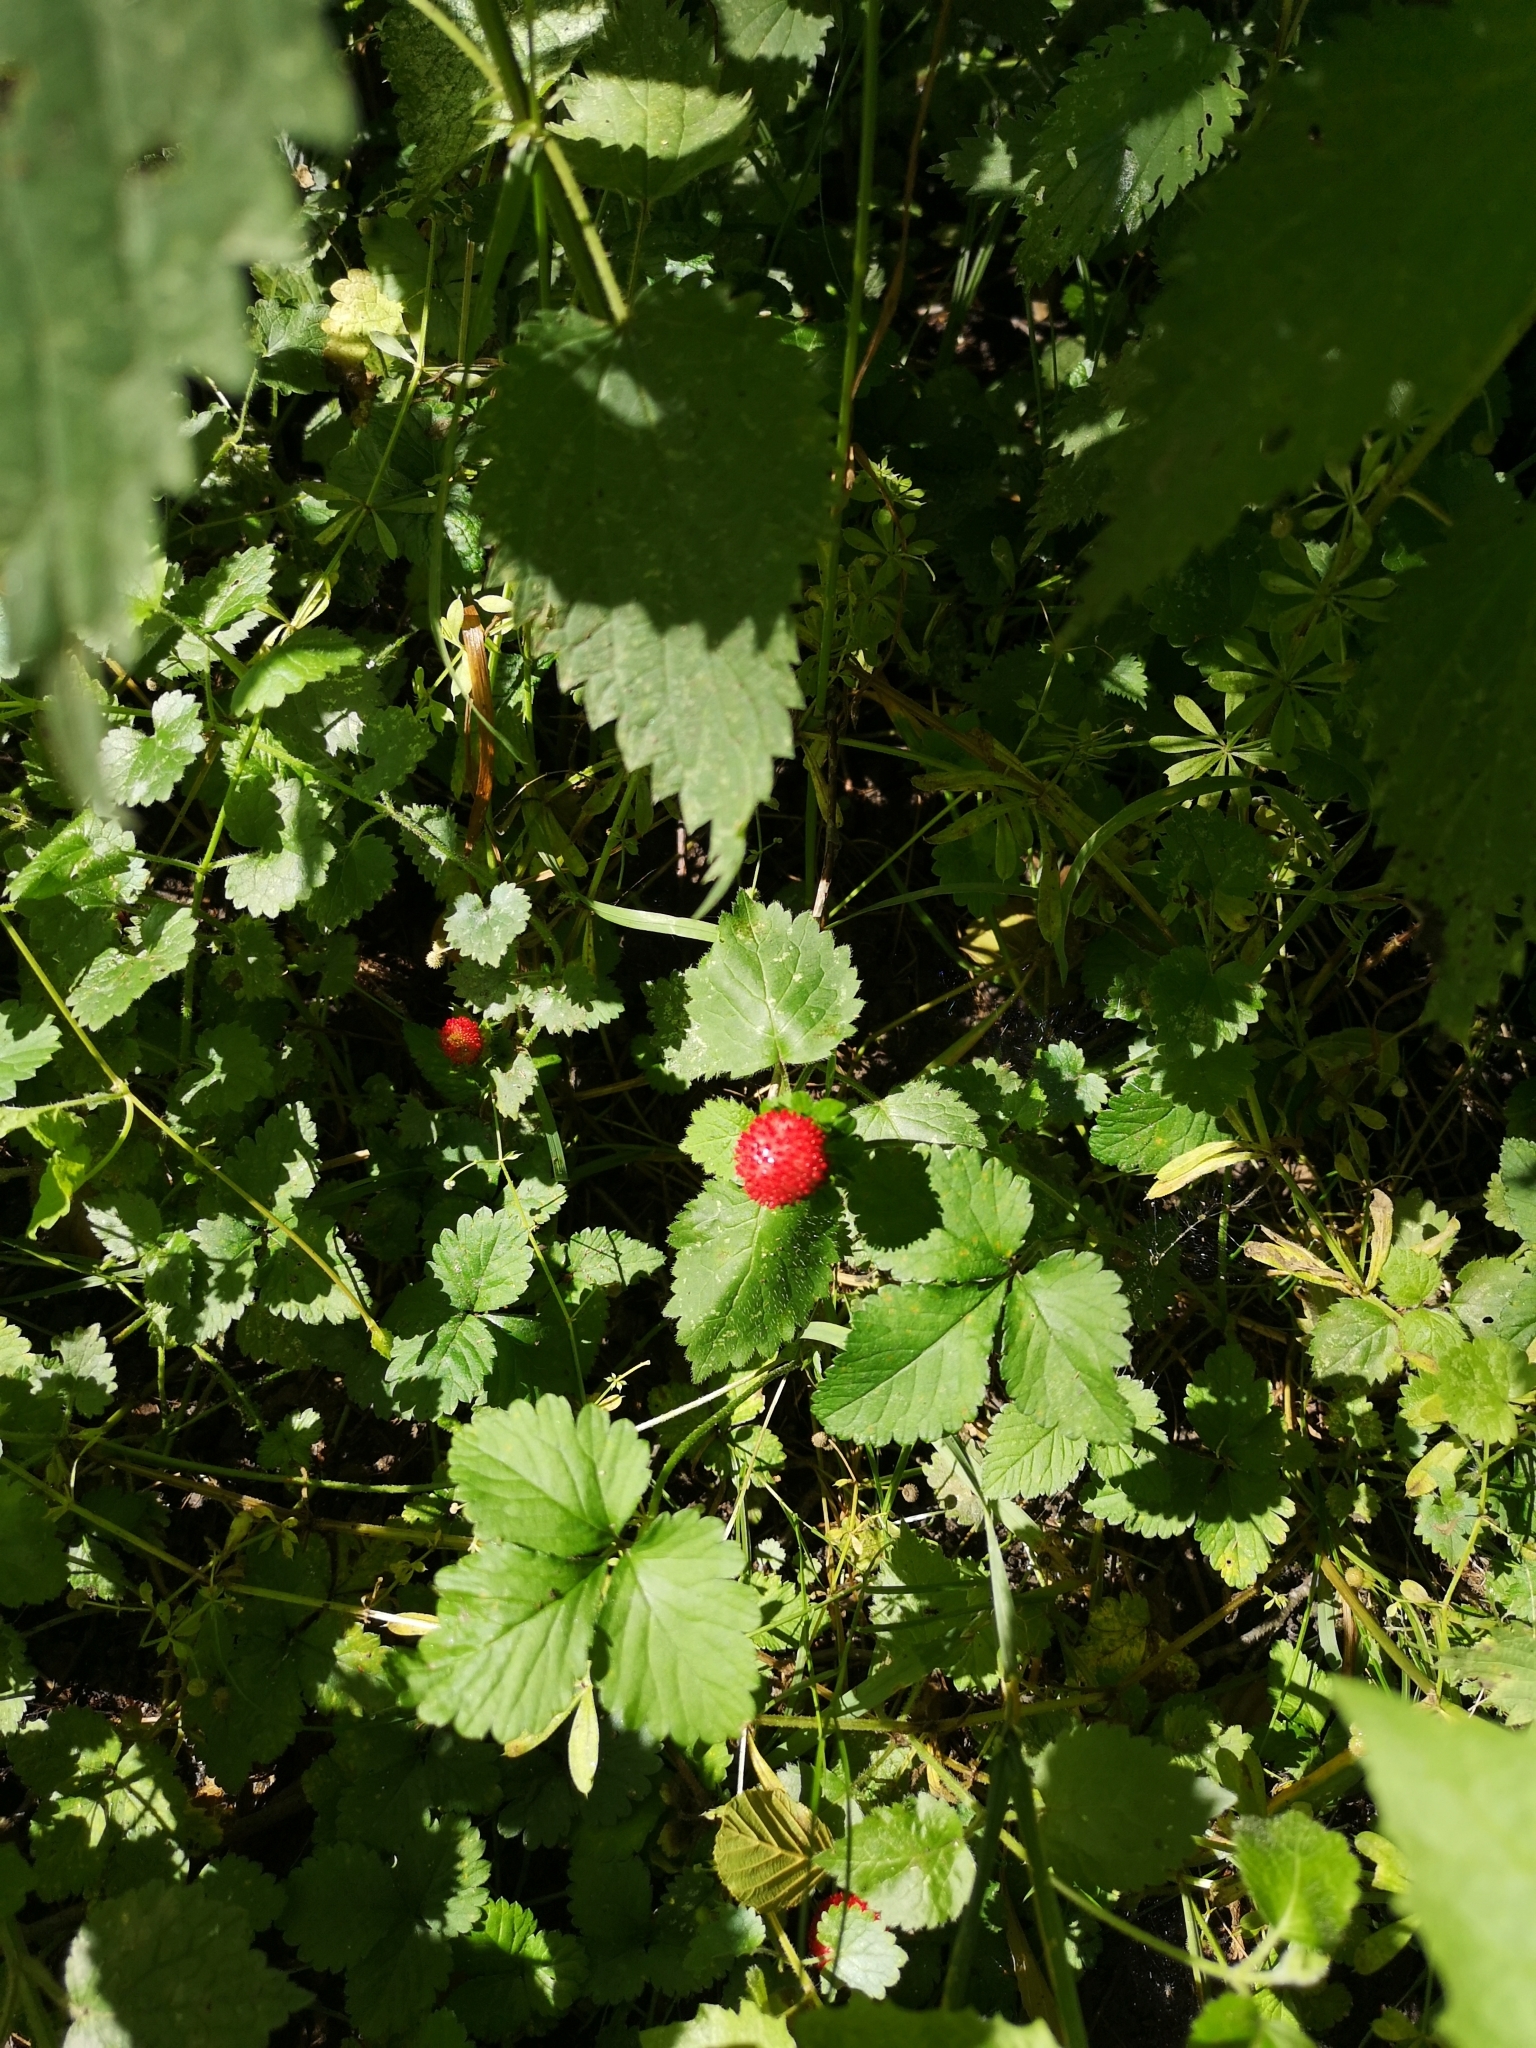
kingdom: Plantae
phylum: Tracheophyta
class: Magnoliopsida
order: Rosales
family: Rosaceae
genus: Potentilla
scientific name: Potentilla indica
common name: Yellow-flowered strawberry
